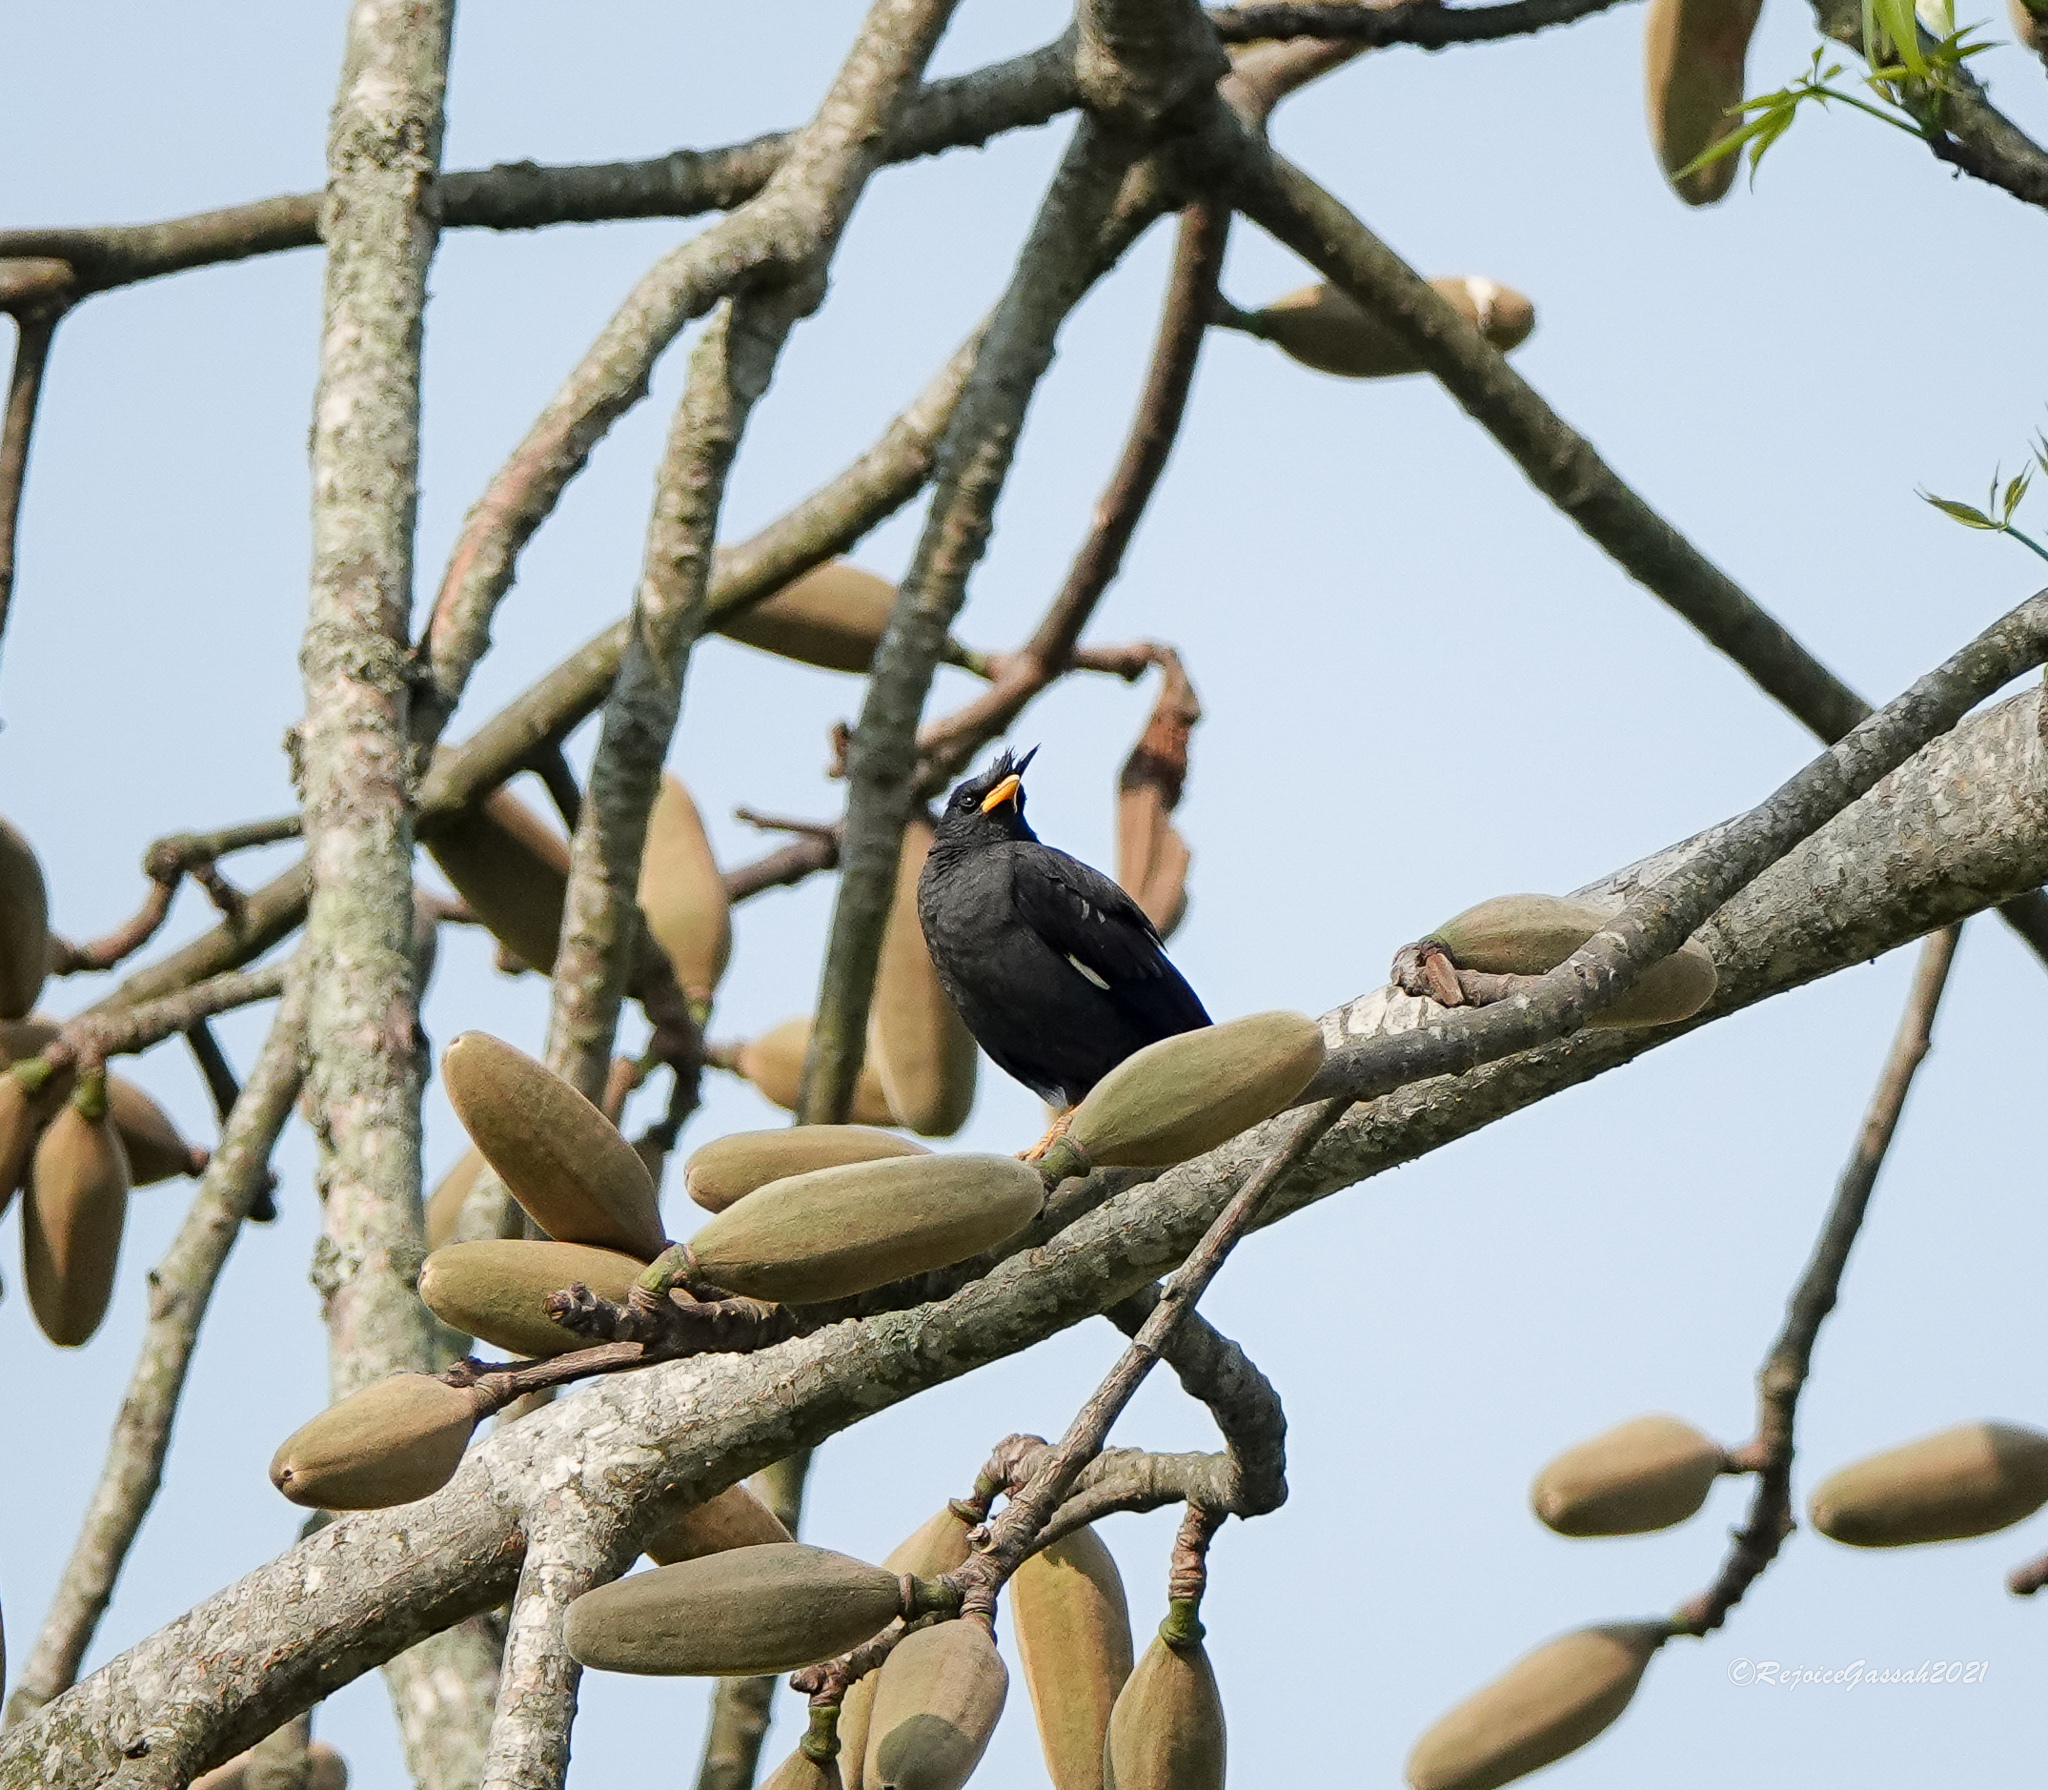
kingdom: Animalia
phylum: Chordata
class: Aves
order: Passeriformes
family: Sturnidae
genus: Acridotheres
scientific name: Acridotheres grandis
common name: Great myna
